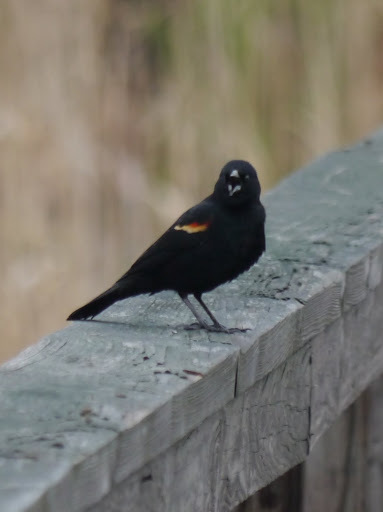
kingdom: Animalia
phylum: Chordata
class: Aves
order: Passeriformes
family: Icteridae
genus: Agelaius
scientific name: Agelaius phoeniceus
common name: Red-winged blackbird
